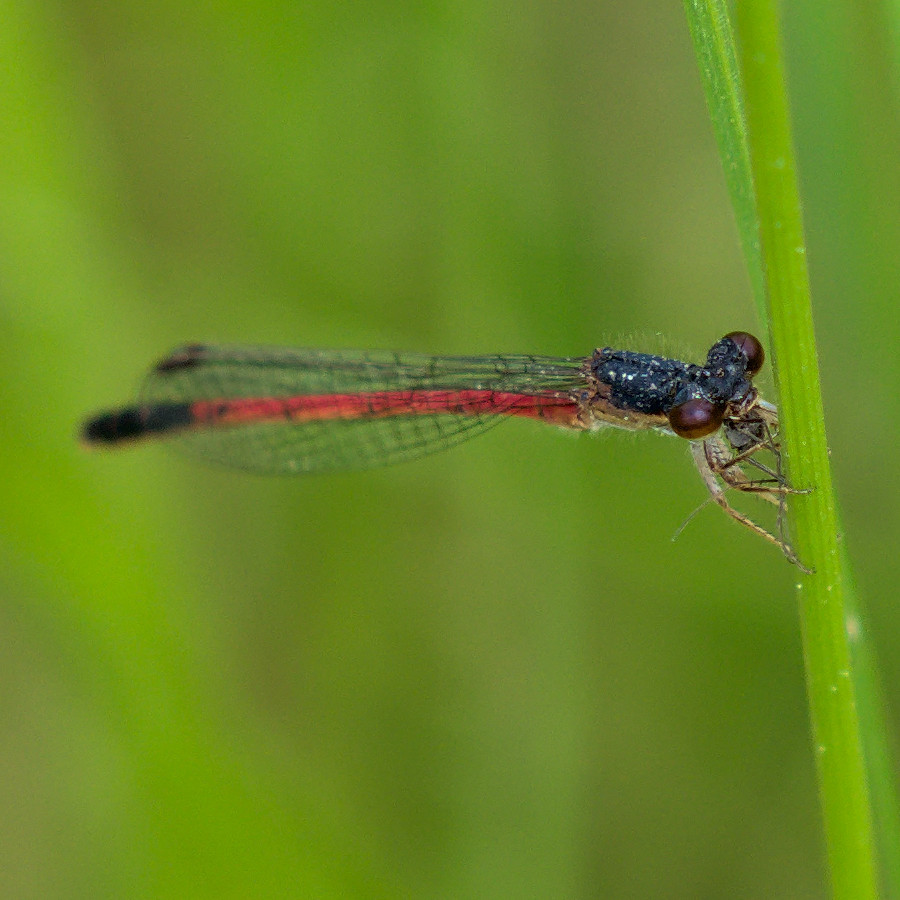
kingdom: Animalia
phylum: Arthropoda
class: Insecta
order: Odonata
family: Coenagrionidae
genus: Amphiagrion
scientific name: Amphiagrion saucium
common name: Eastern red damsel
